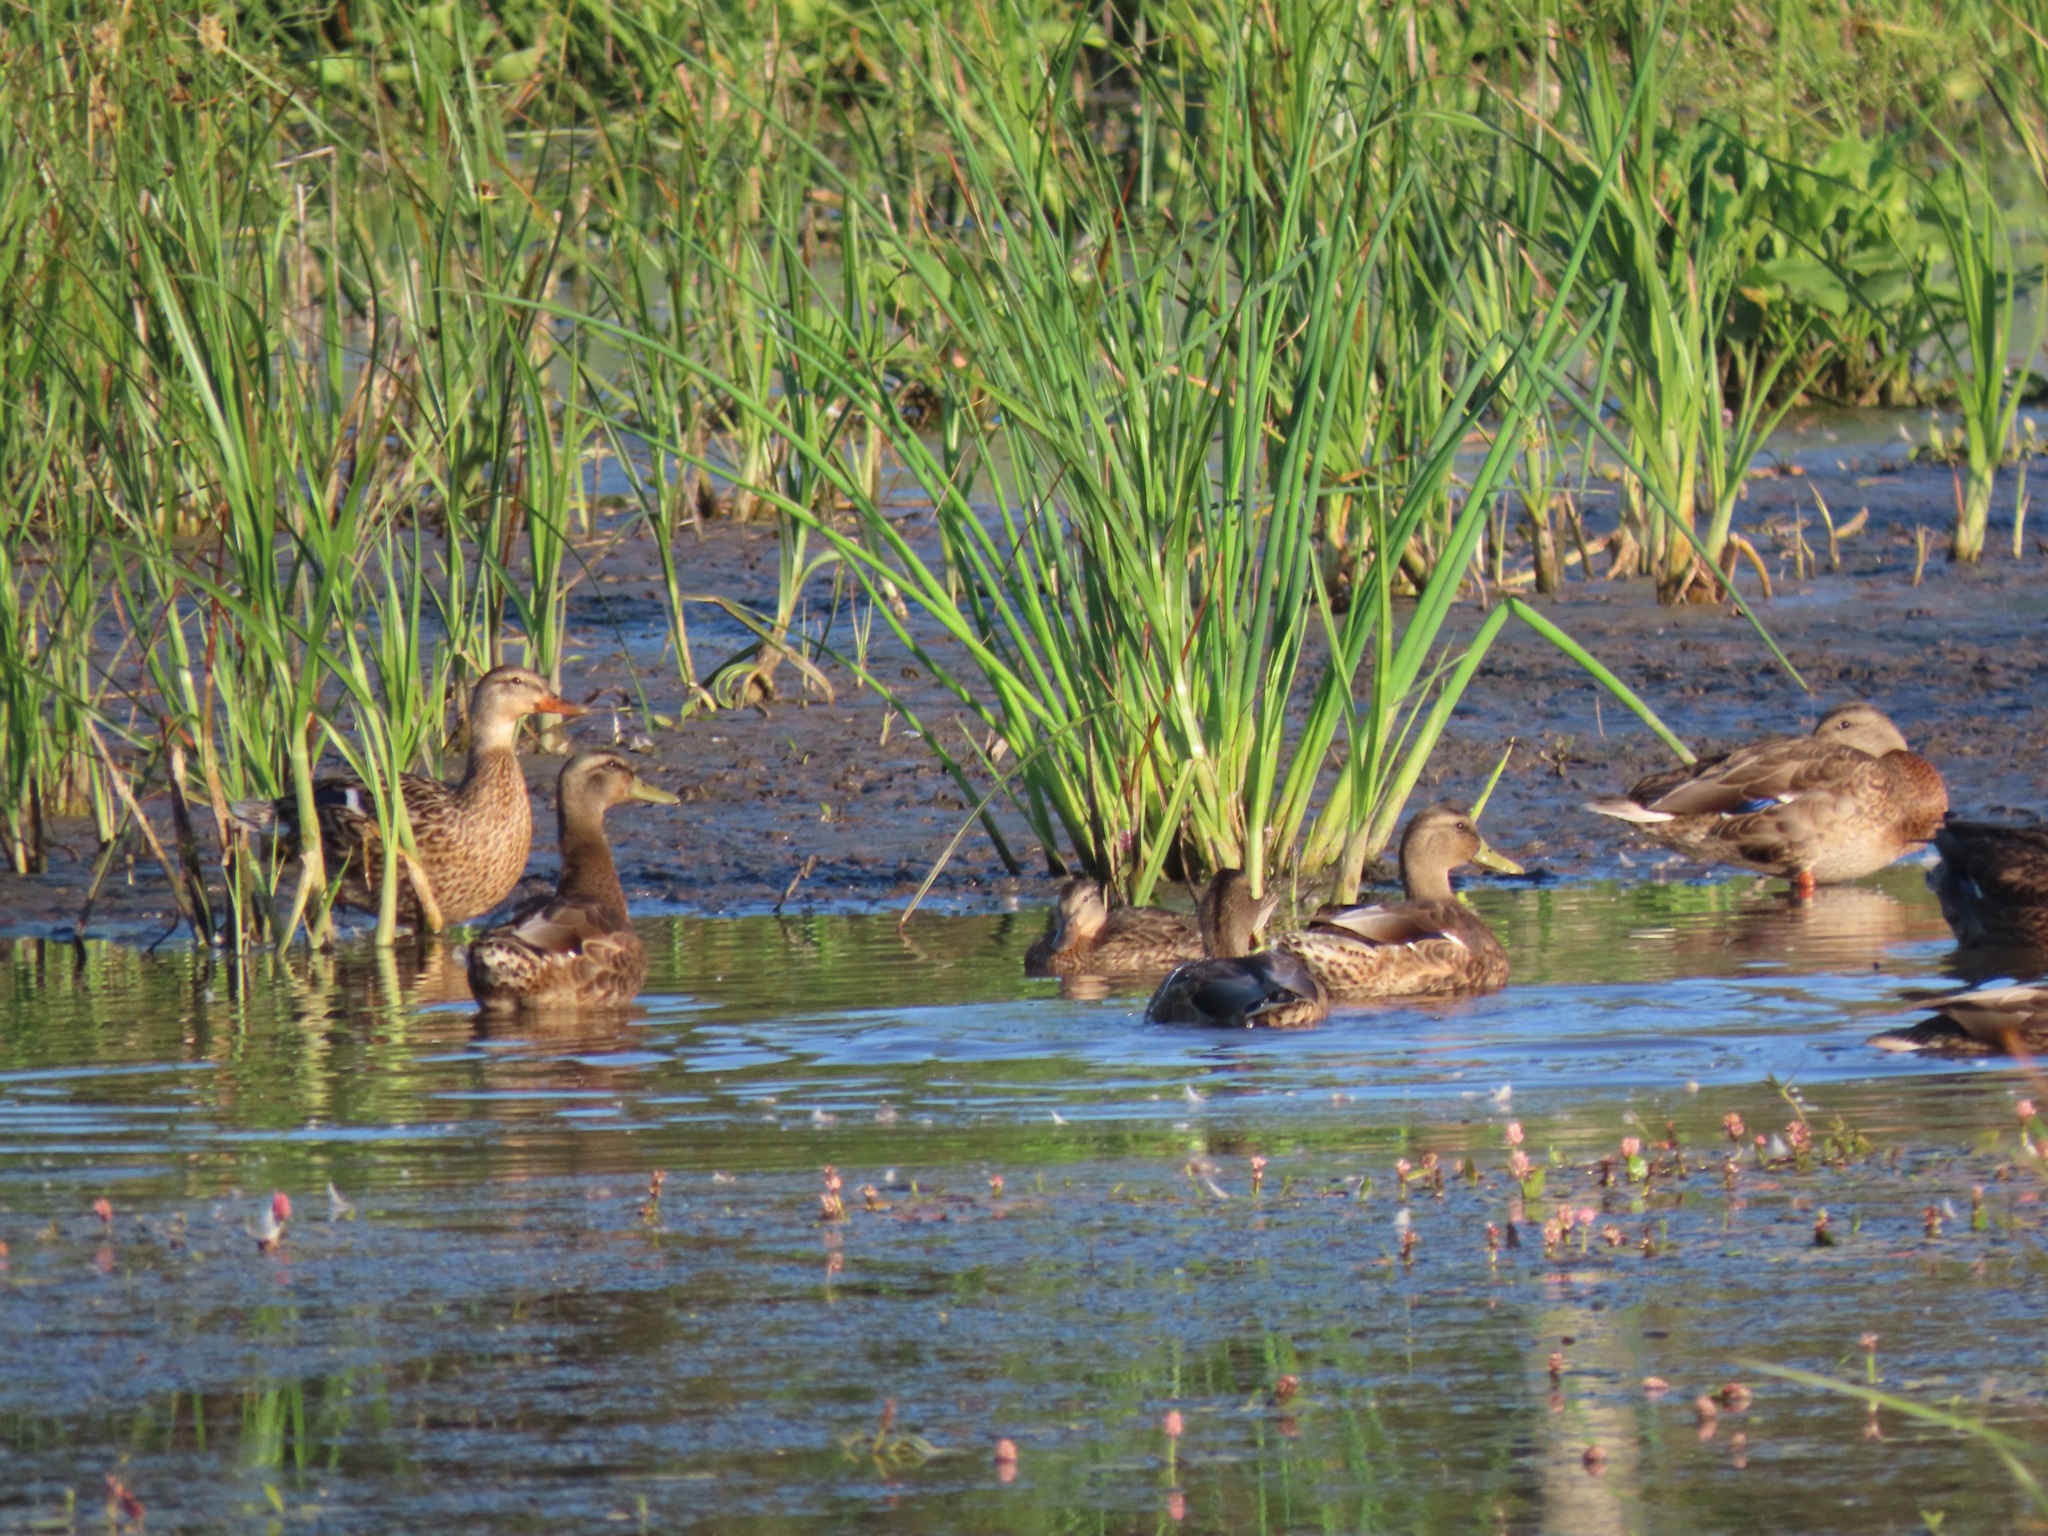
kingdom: Animalia
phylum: Chordata
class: Aves
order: Anseriformes
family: Anatidae
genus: Anas
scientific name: Anas platyrhynchos
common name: Mallard
